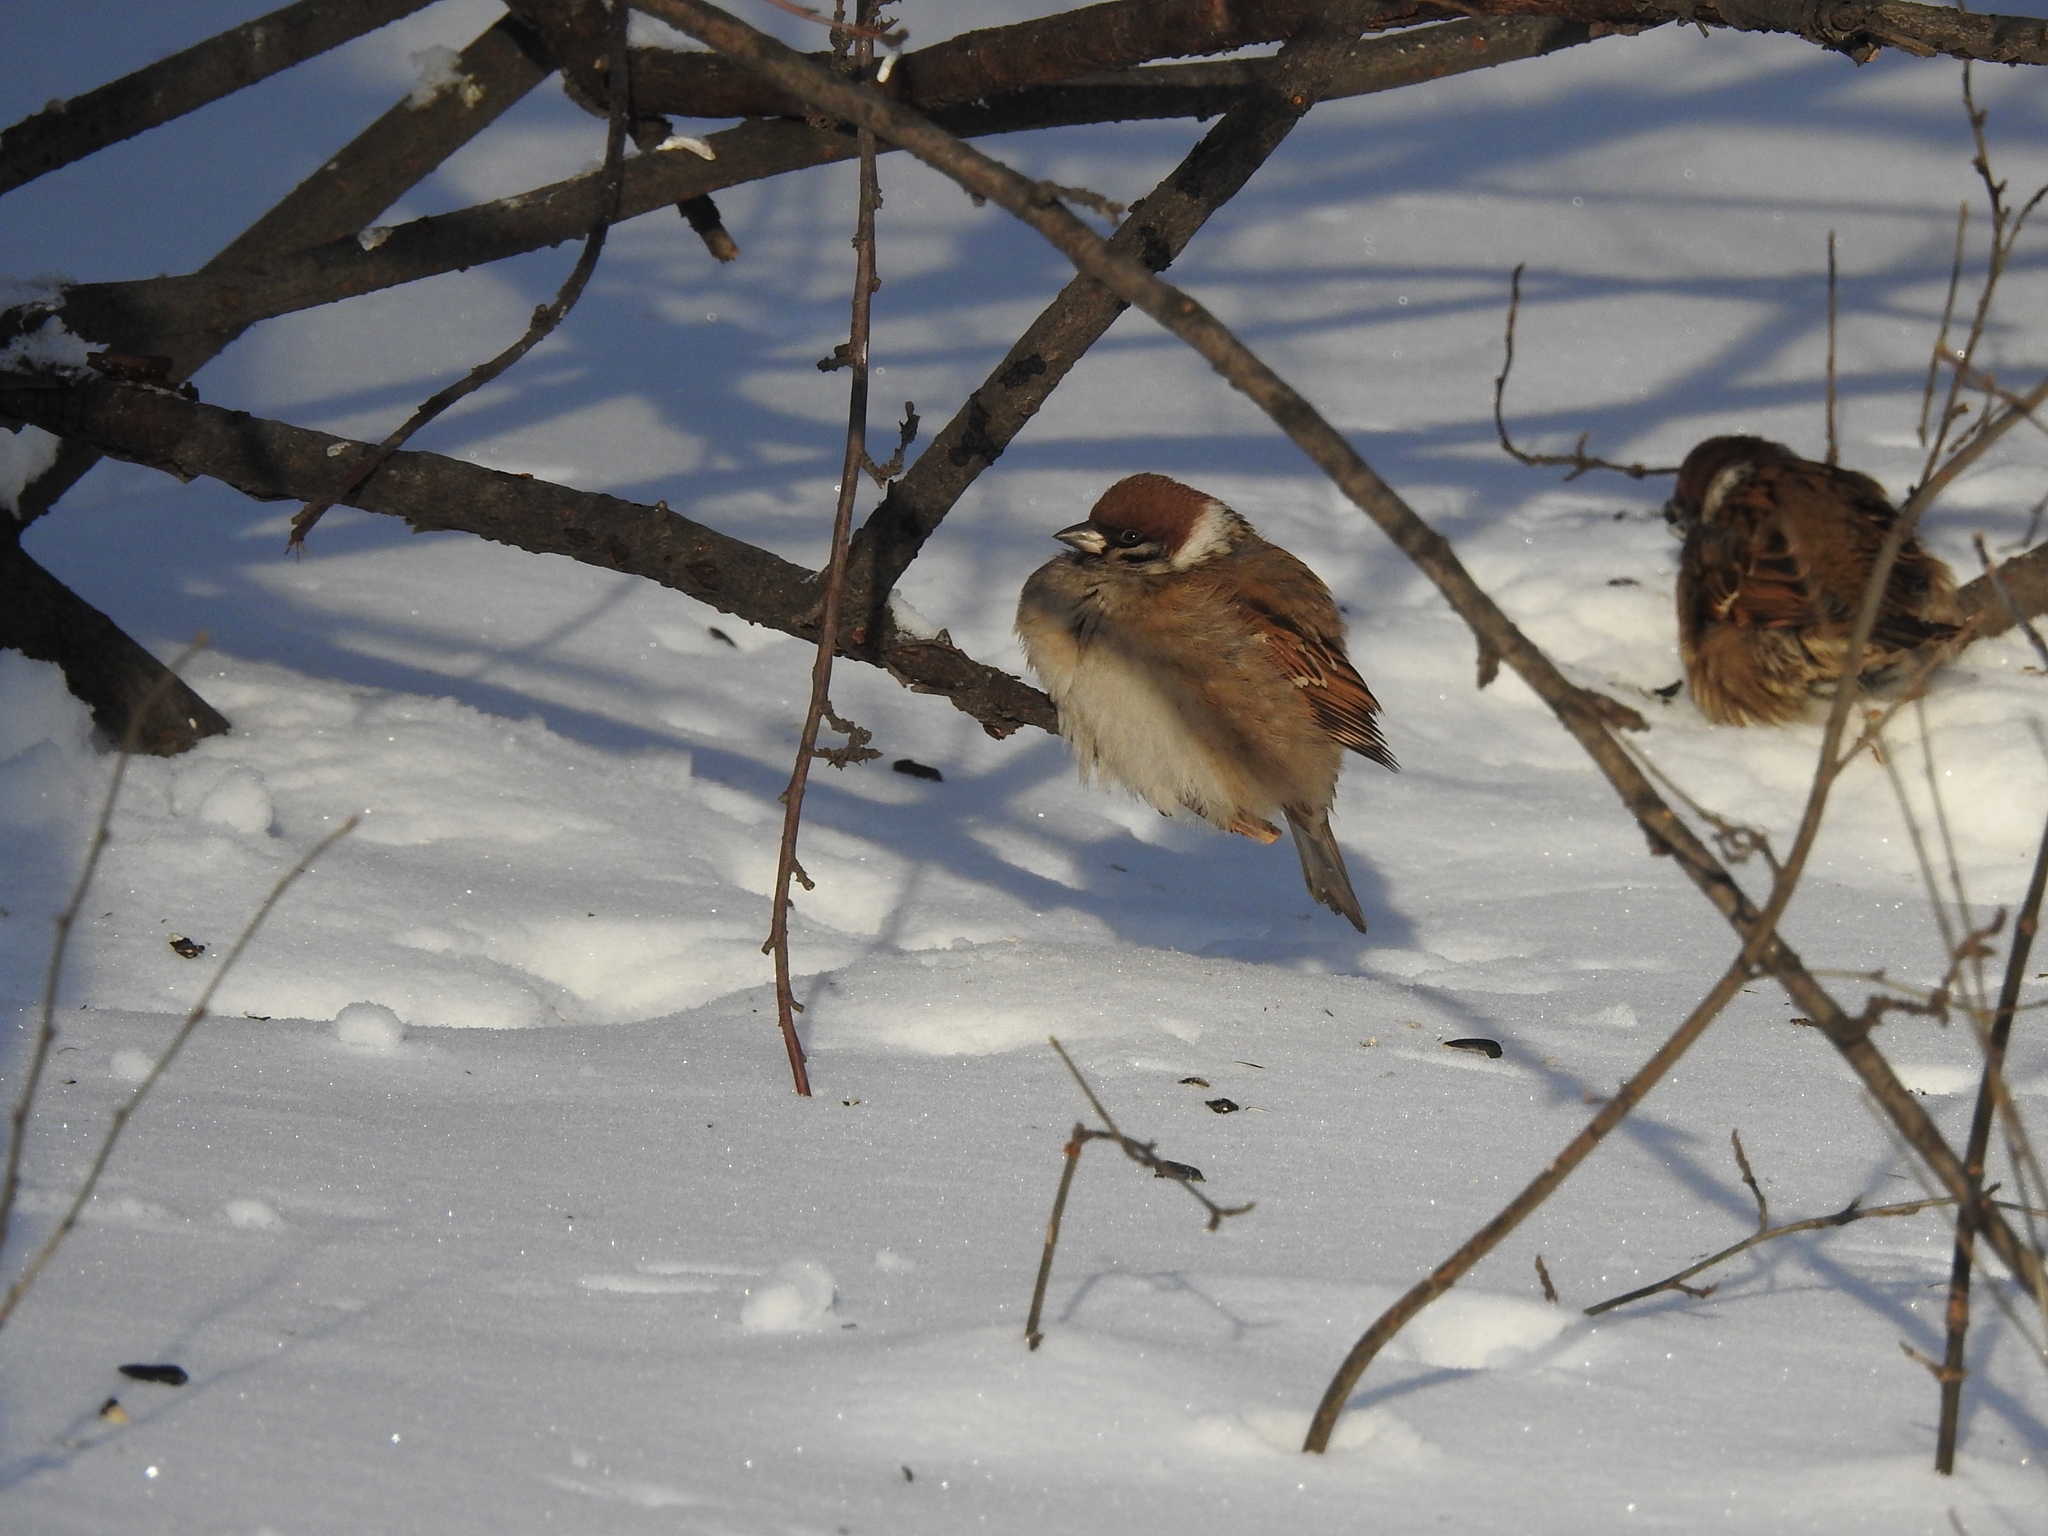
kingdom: Animalia
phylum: Chordata
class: Aves
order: Passeriformes
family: Passeridae
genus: Passer
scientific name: Passer montanus
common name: Eurasian tree sparrow
